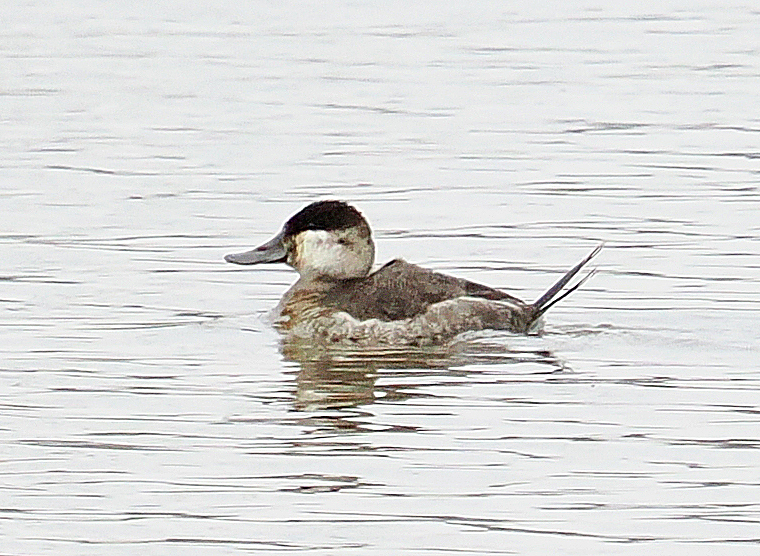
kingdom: Animalia
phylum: Chordata
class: Aves
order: Anseriformes
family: Anatidae
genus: Oxyura
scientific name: Oxyura jamaicensis
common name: Ruddy duck
